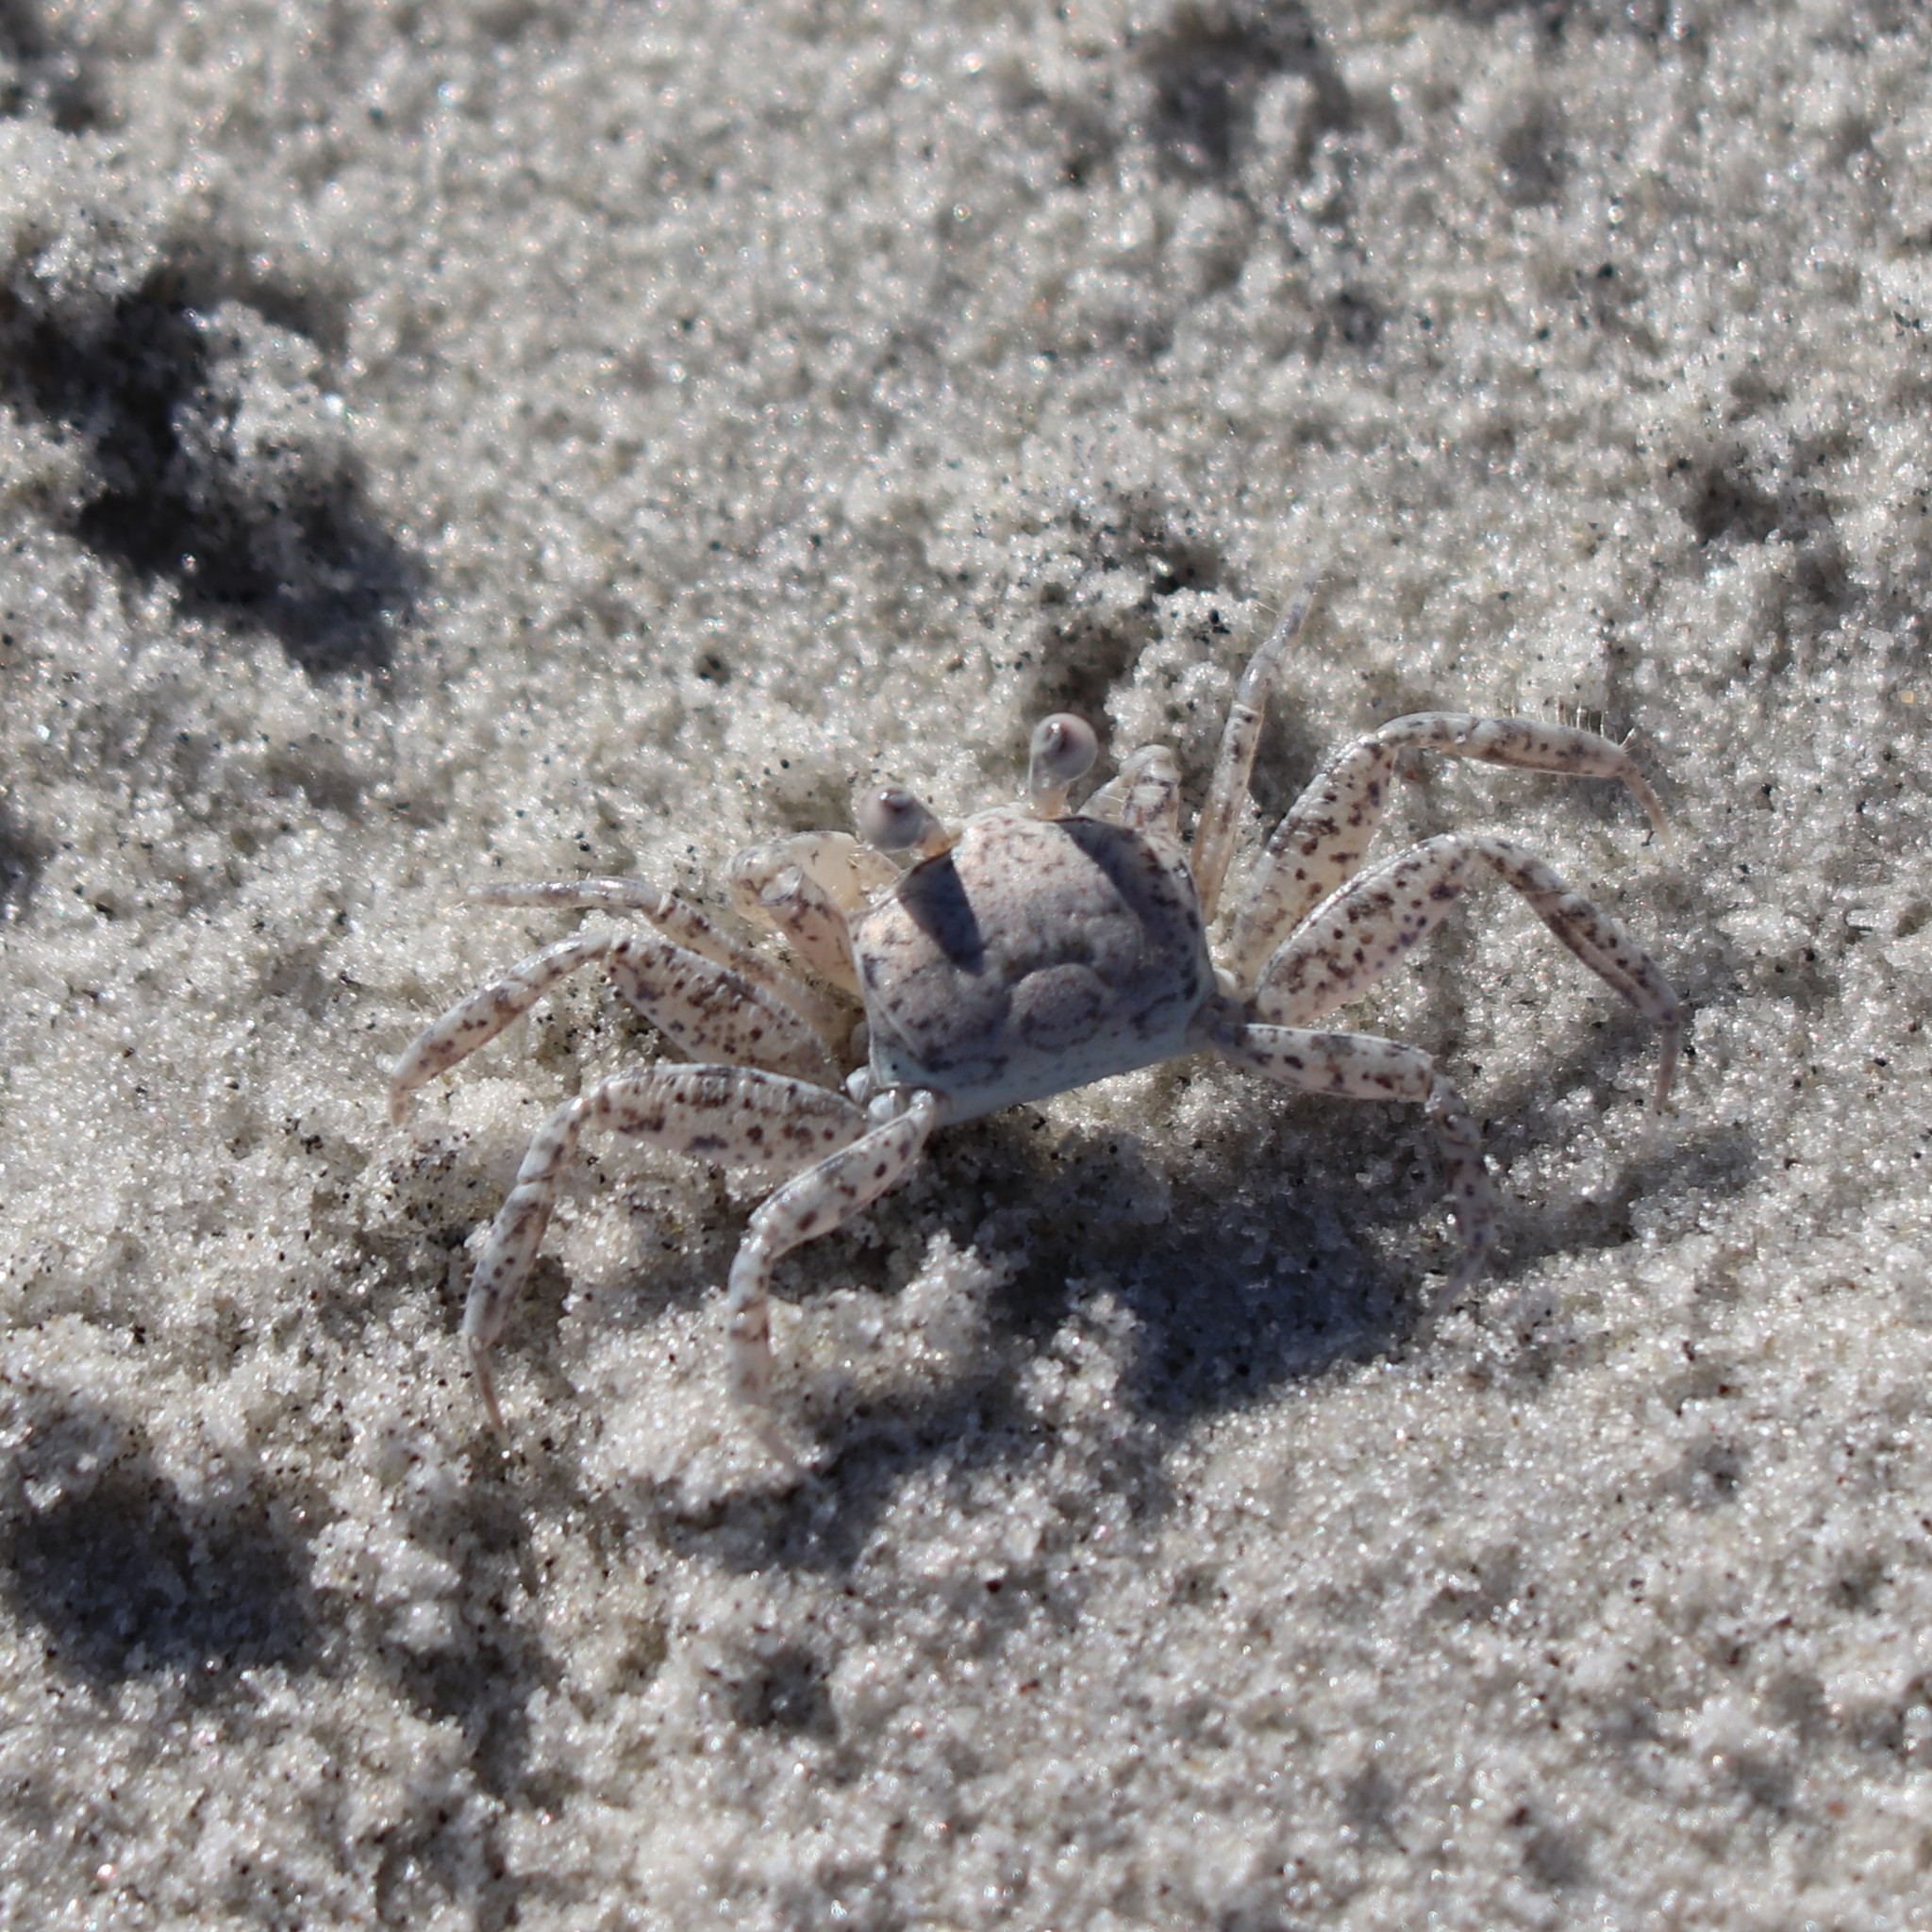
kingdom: Animalia
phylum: Arthropoda
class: Malacostraca
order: Decapoda
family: Ocypodidae
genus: Ocypode
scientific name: Ocypode quadrata
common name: Ghost crab
